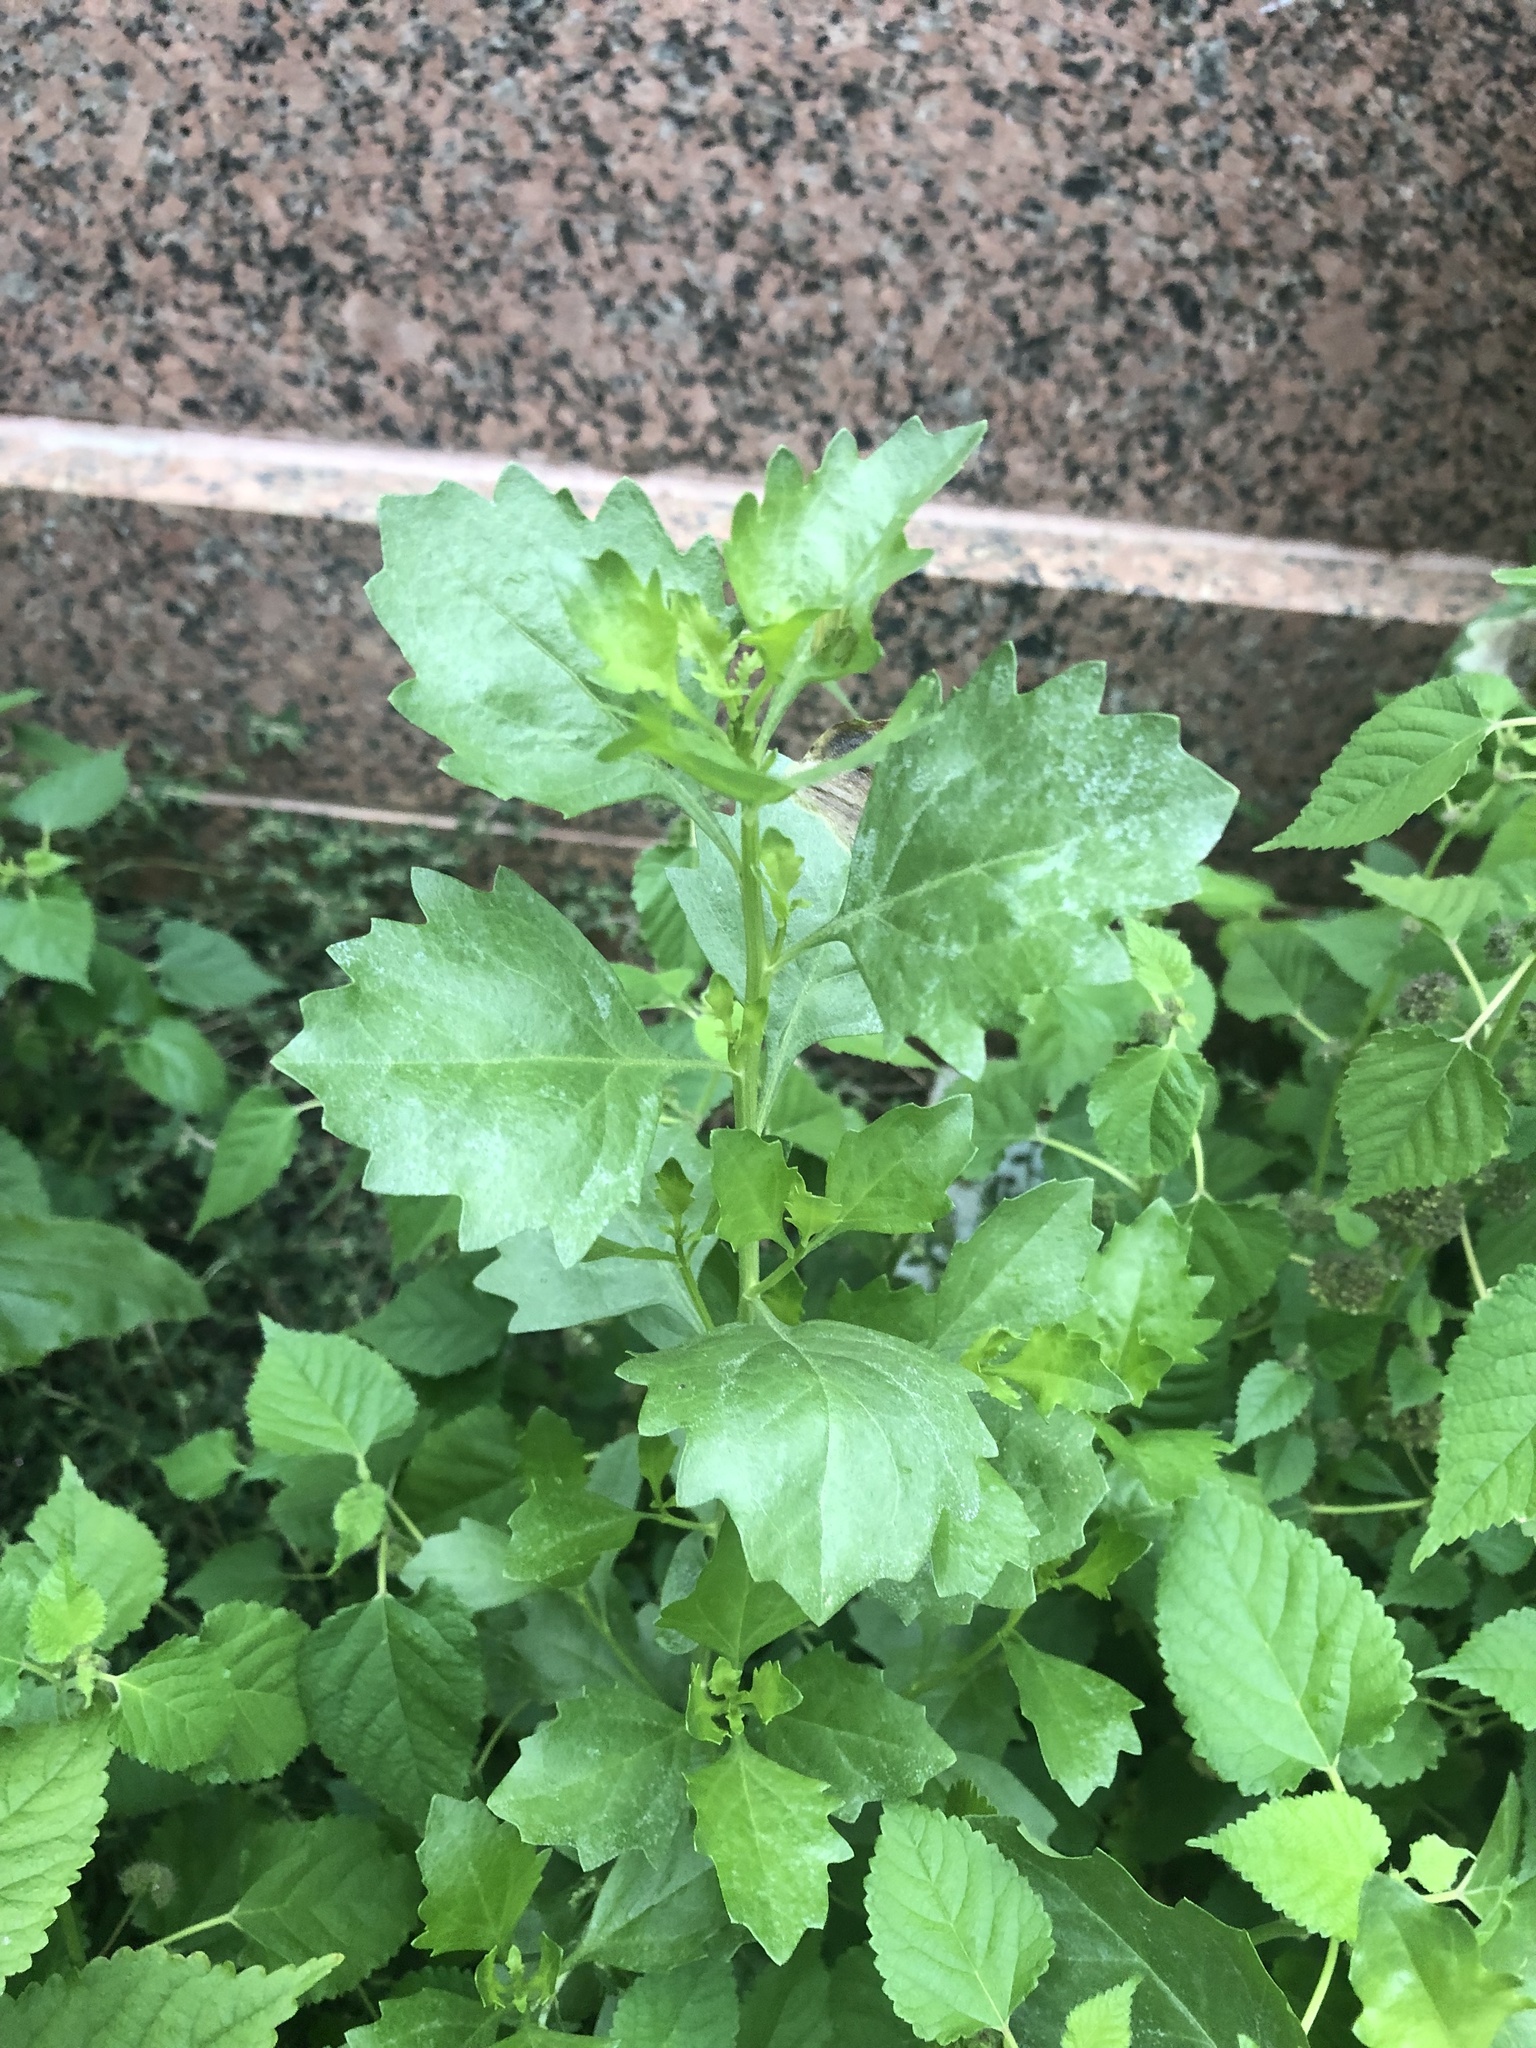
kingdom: Plantae
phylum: Tracheophyta
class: Magnoliopsida
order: Asterales
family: Asteraceae
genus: Baccharis
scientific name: Baccharis halimifolia
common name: Eastern baccharis
